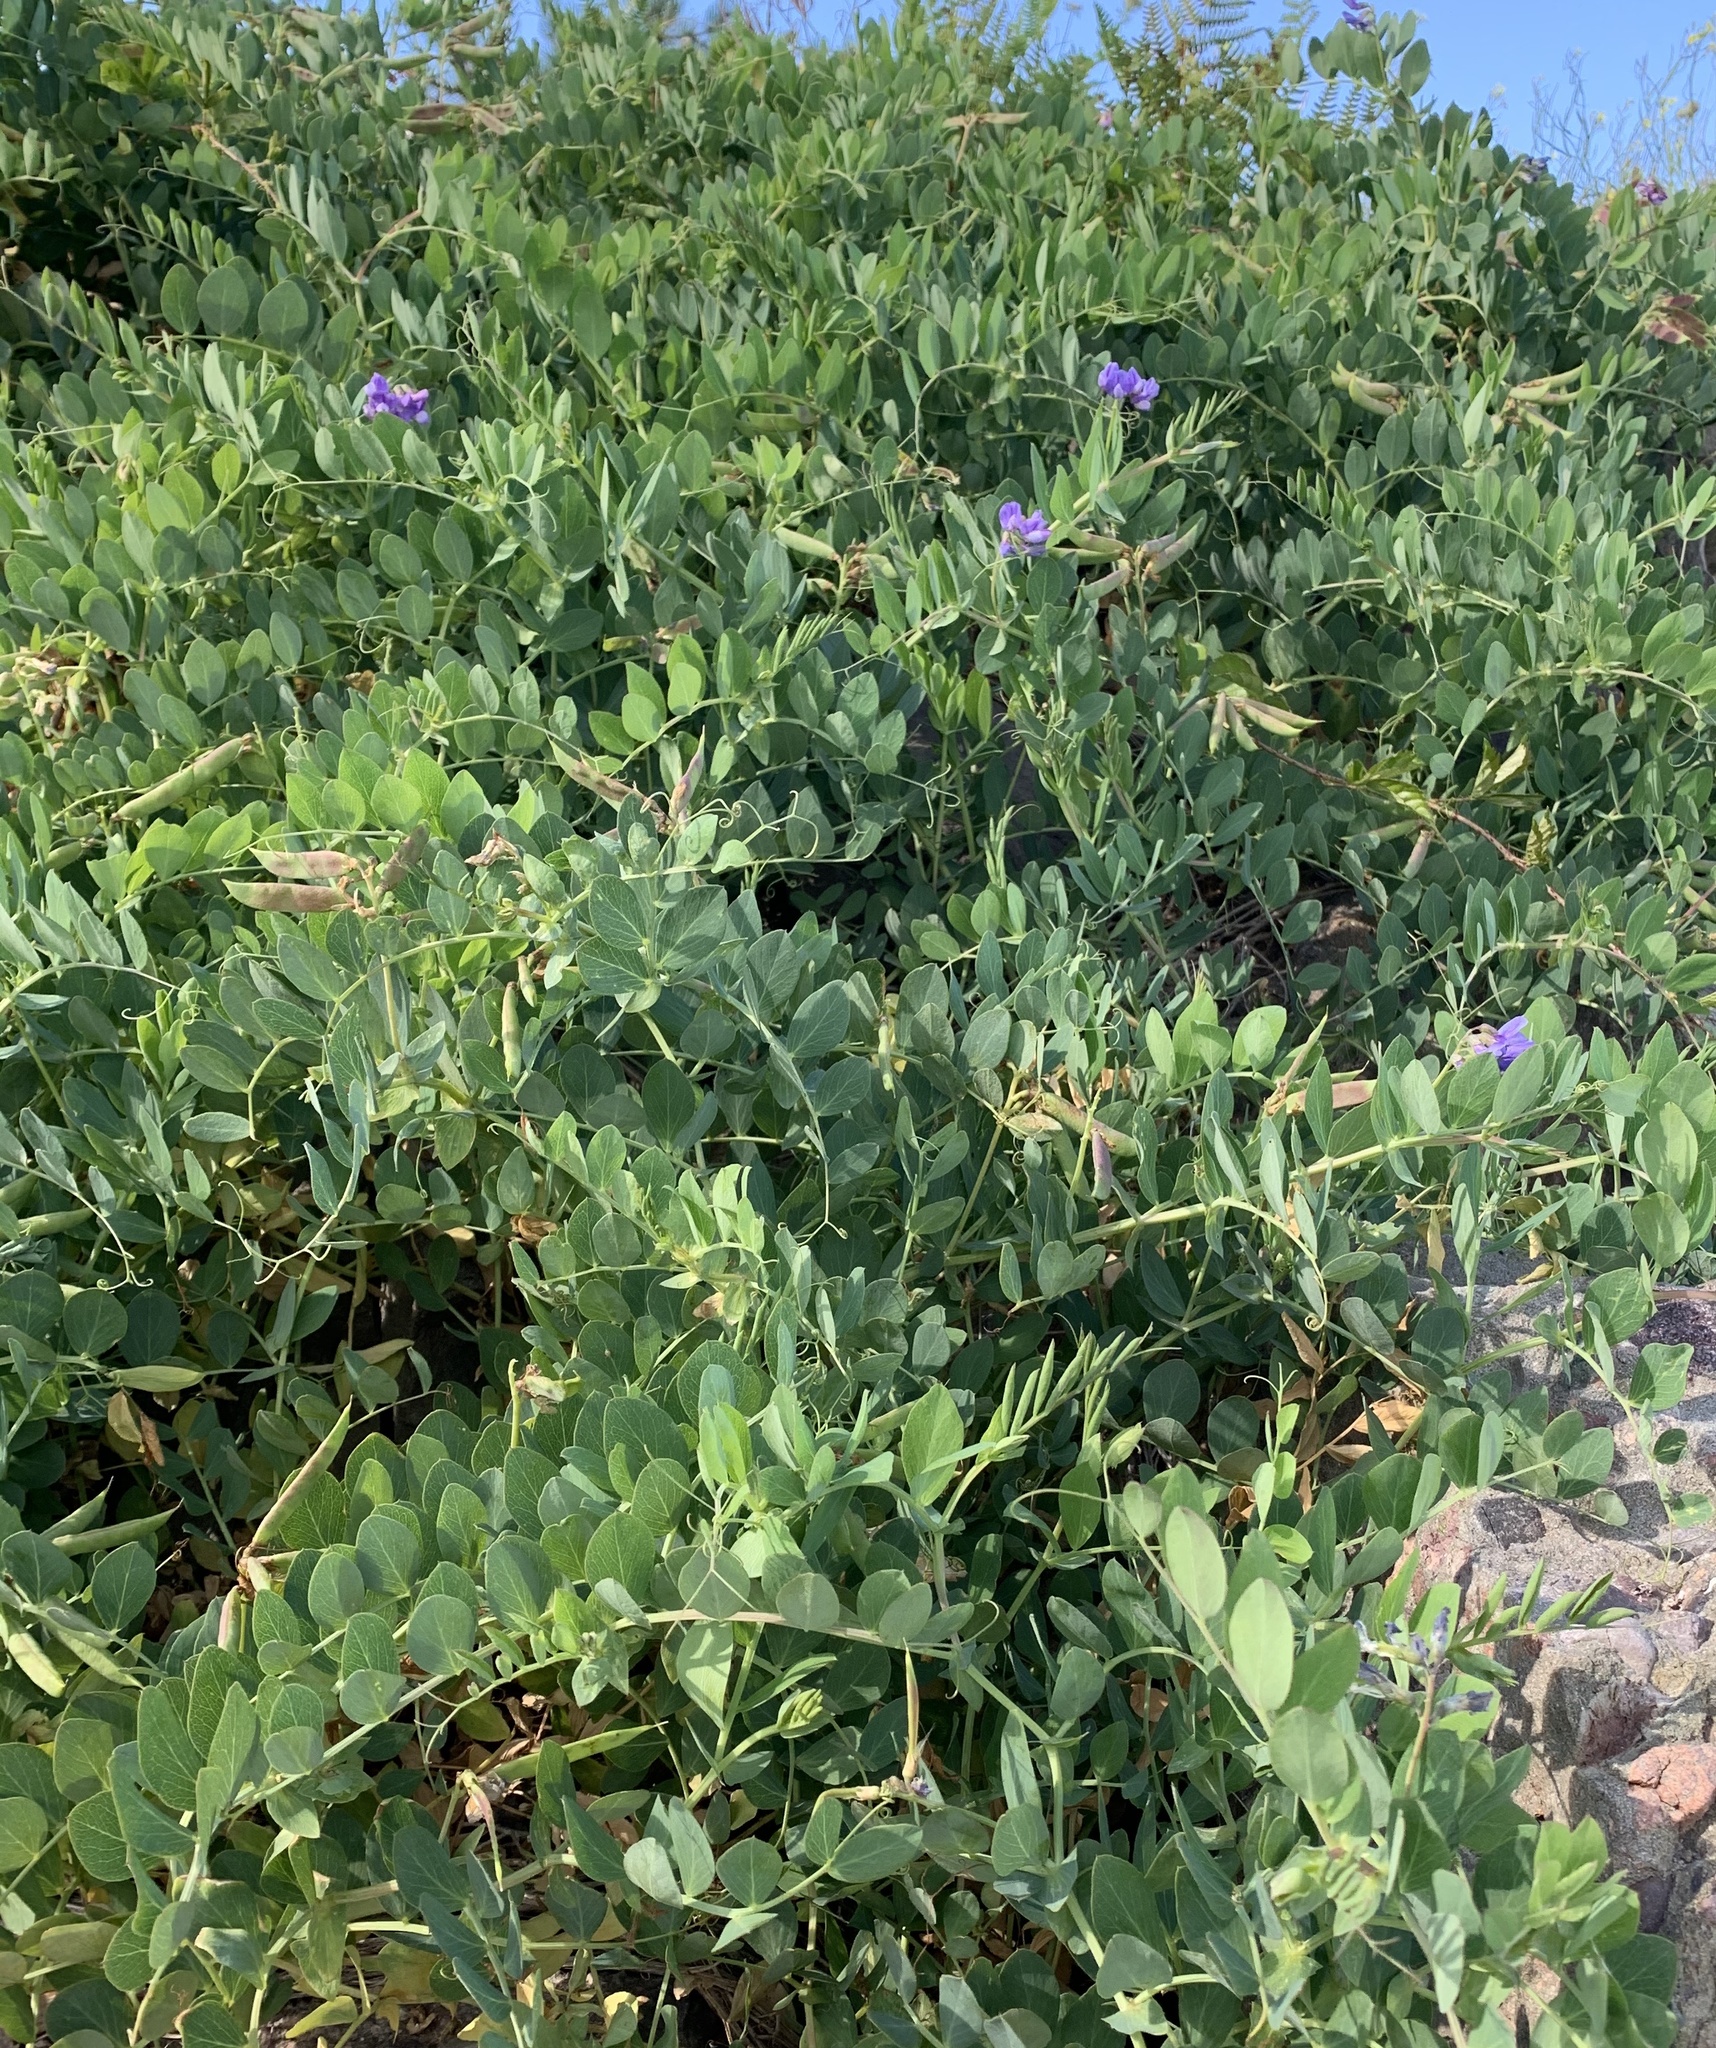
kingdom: Plantae
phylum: Tracheophyta
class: Magnoliopsida
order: Fabales
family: Fabaceae
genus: Lathyrus
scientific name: Lathyrus japonicus
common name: Sea pea
